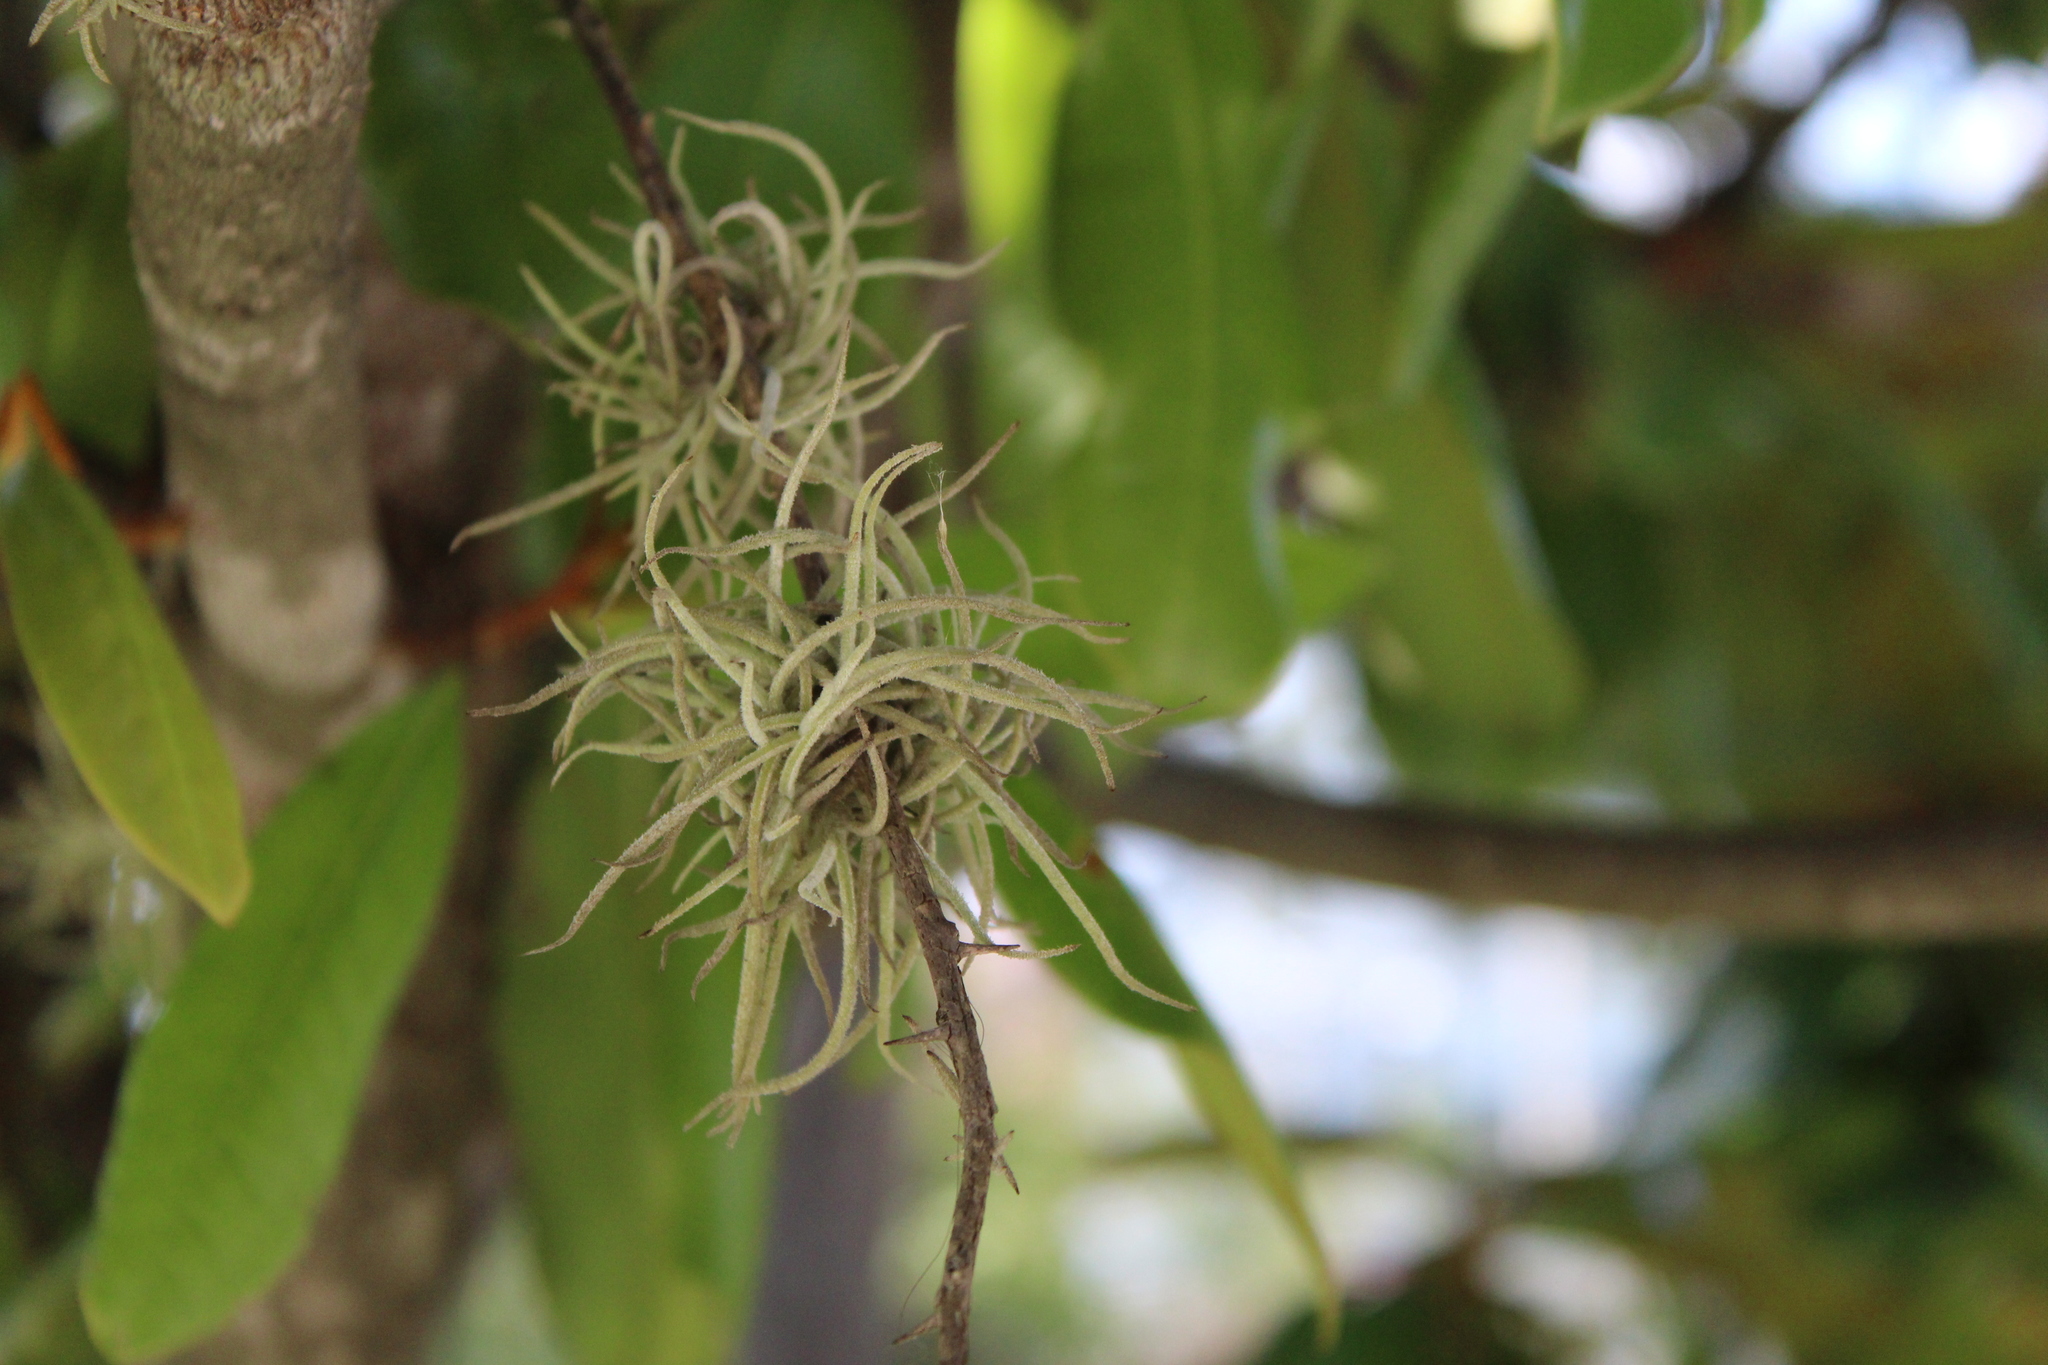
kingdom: Plantae
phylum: Tracheophyta
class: Liliopsida
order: Poales
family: Bromeliaceae
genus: Tillandsia
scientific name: Tillandsia recurvata
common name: Small ballmoss
